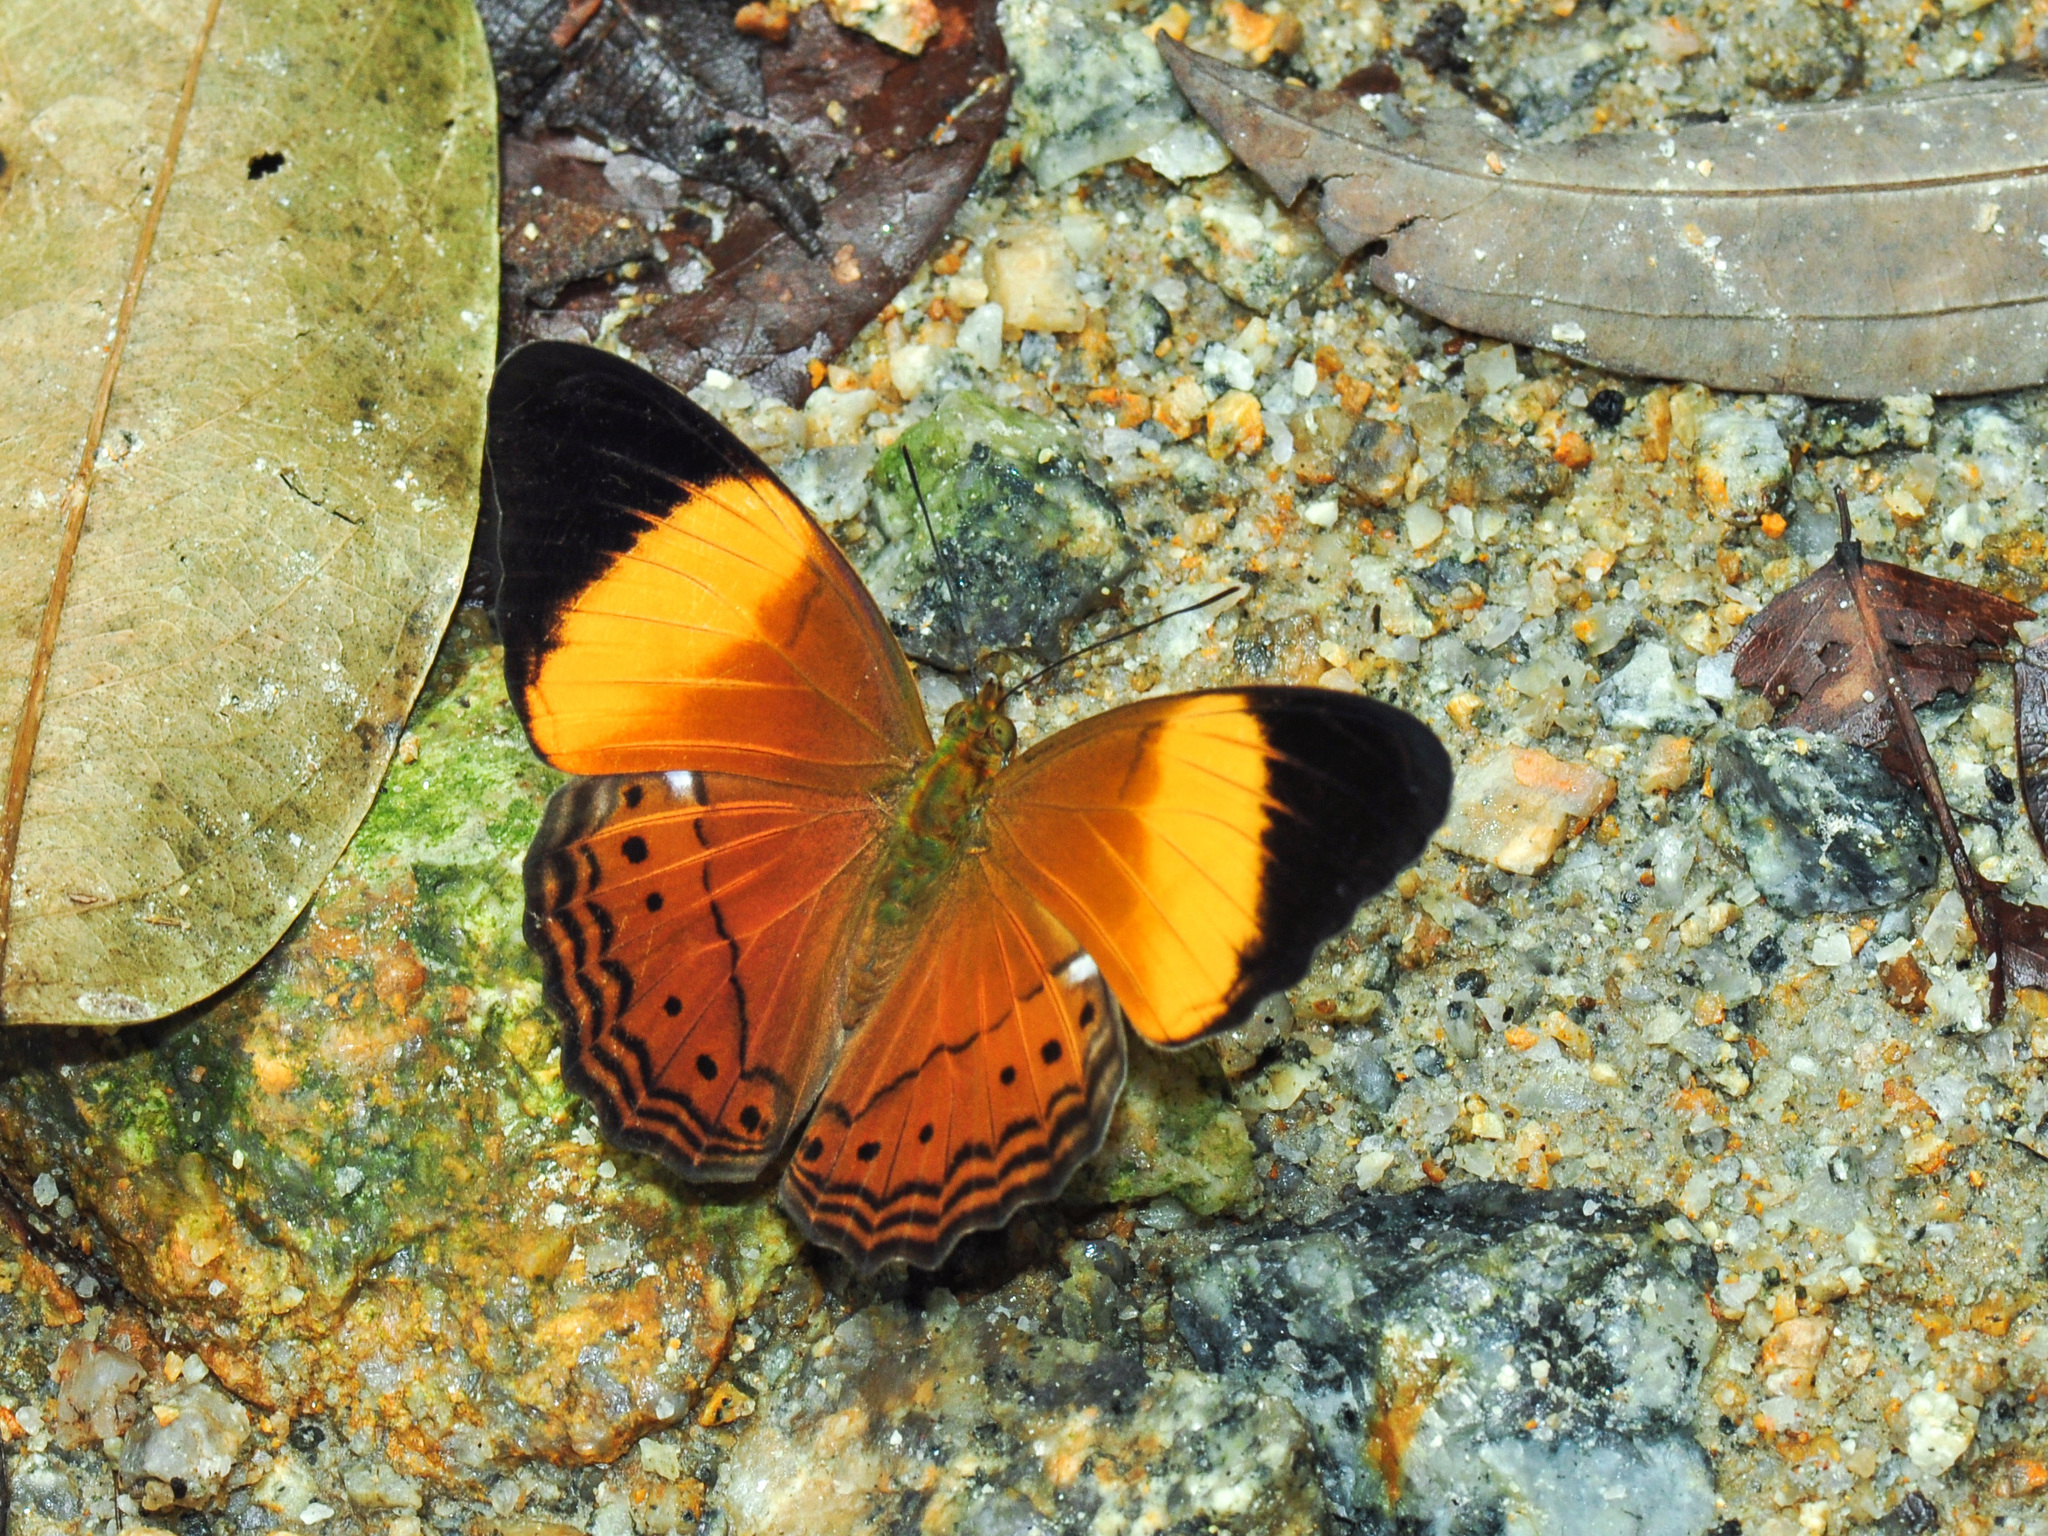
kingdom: Animalia
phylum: Arthropoda
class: Insecta
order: Lepidoptera
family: Nymphalidae
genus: Cirrochroa
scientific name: Cirrochroa orissa
